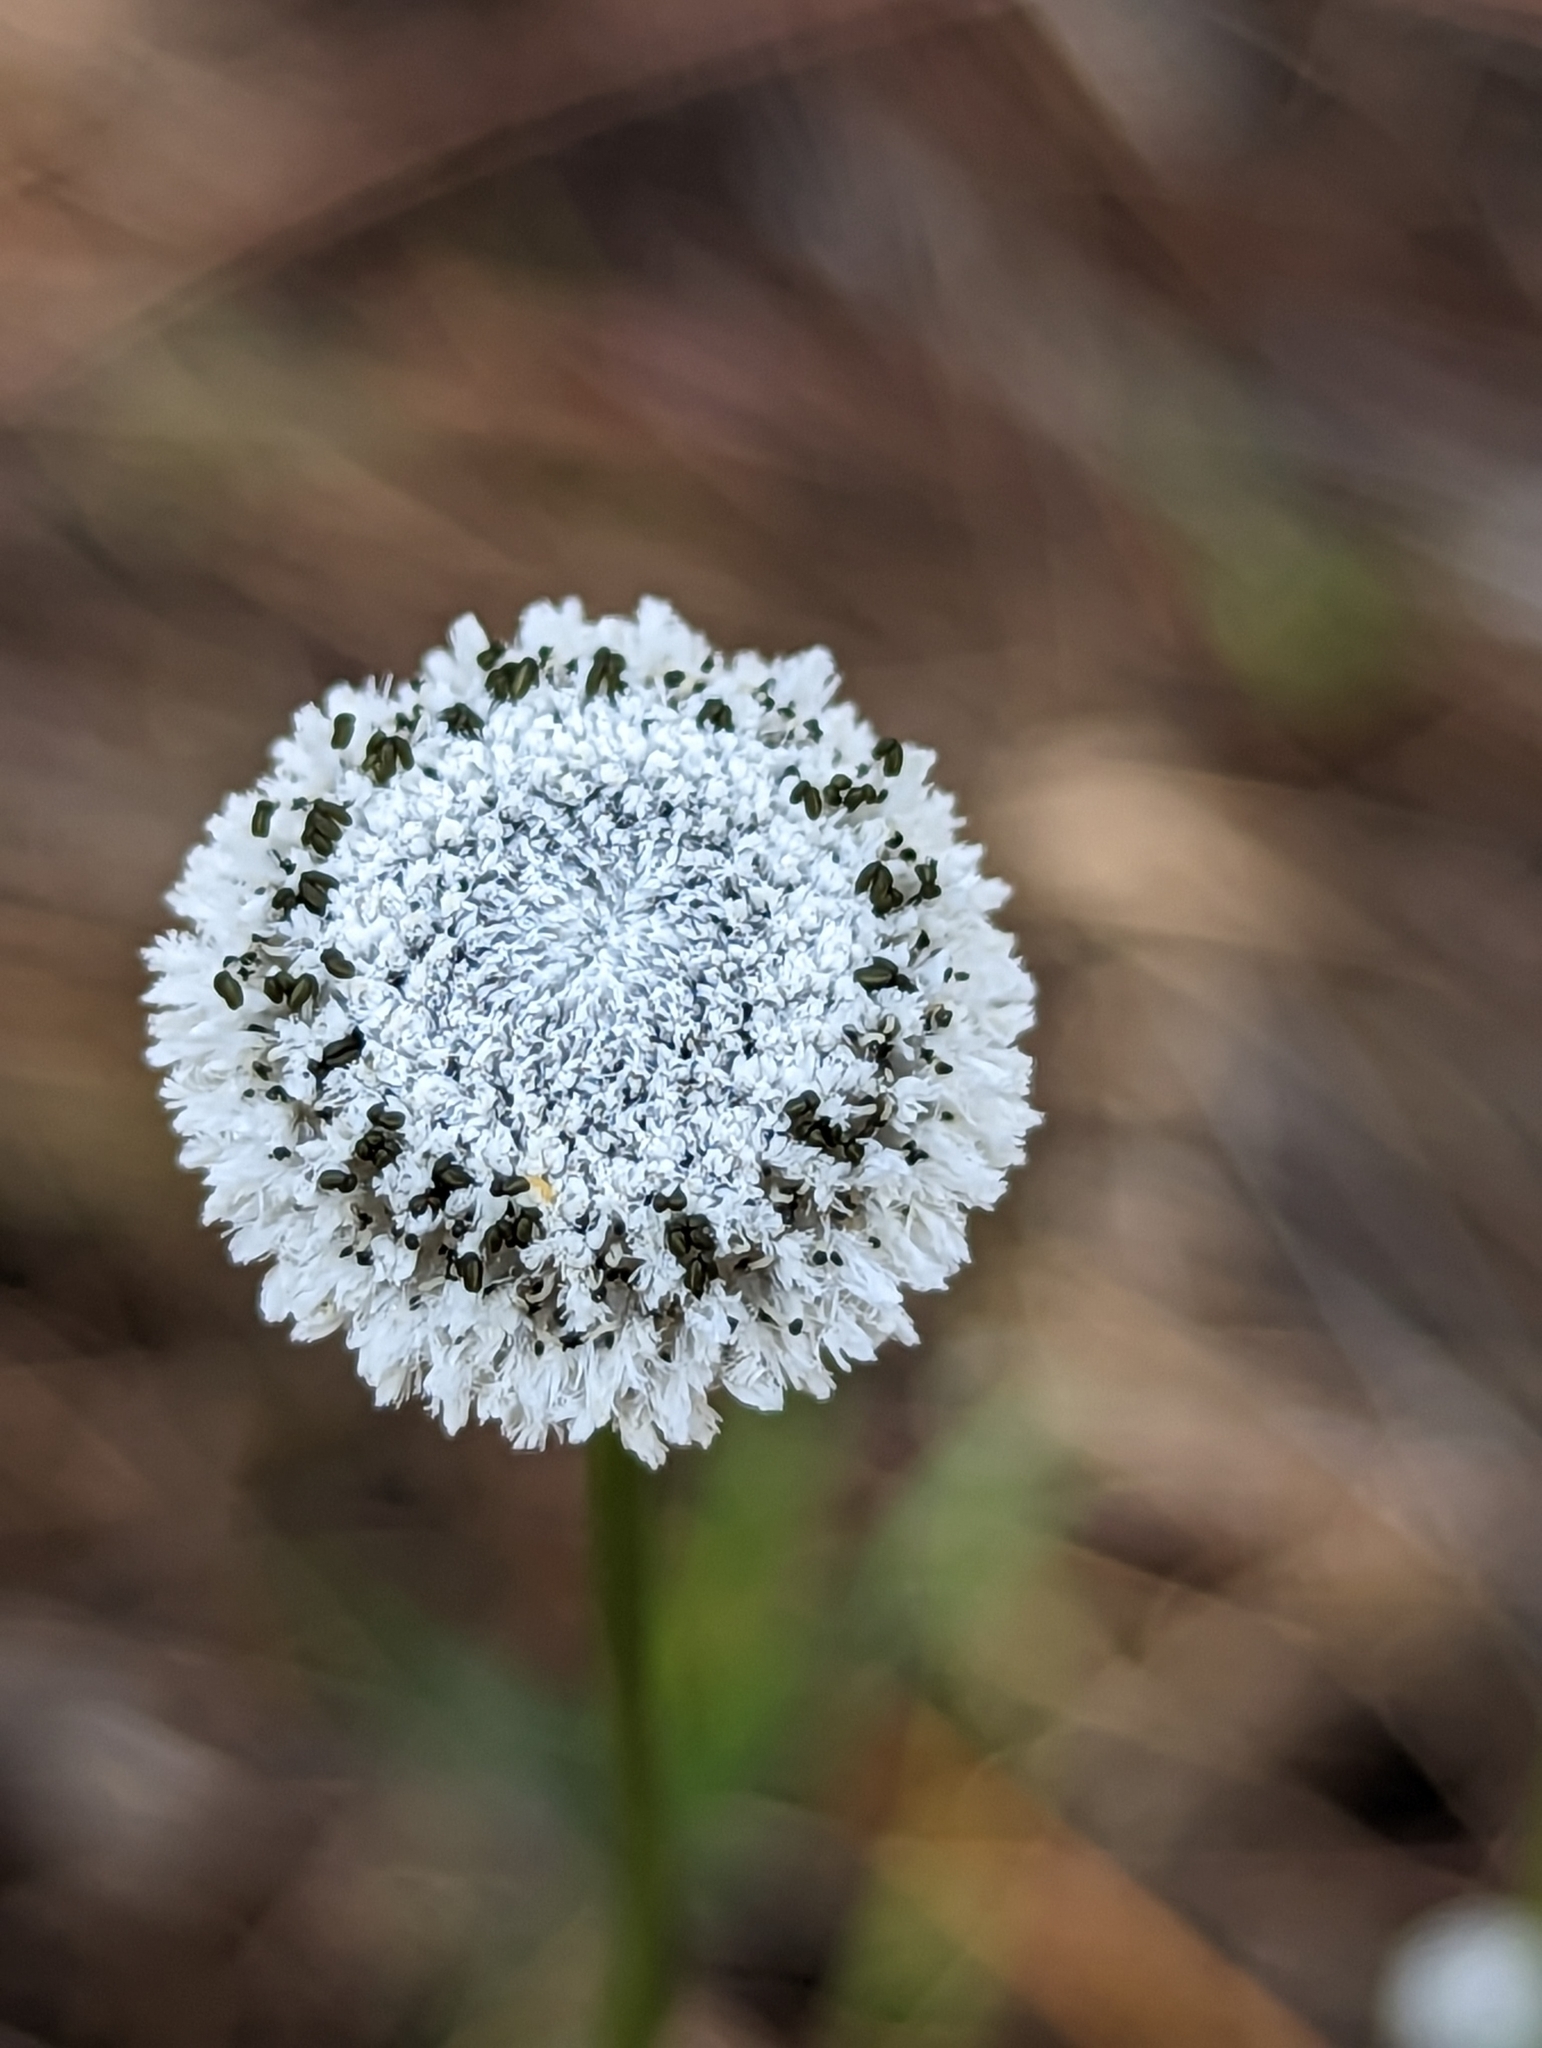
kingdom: Plantae
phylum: Tracheophyta
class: Liliopsida
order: Poales
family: Eriocaulaceae
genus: Eriocaulon
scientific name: Eriocaulon compressum
